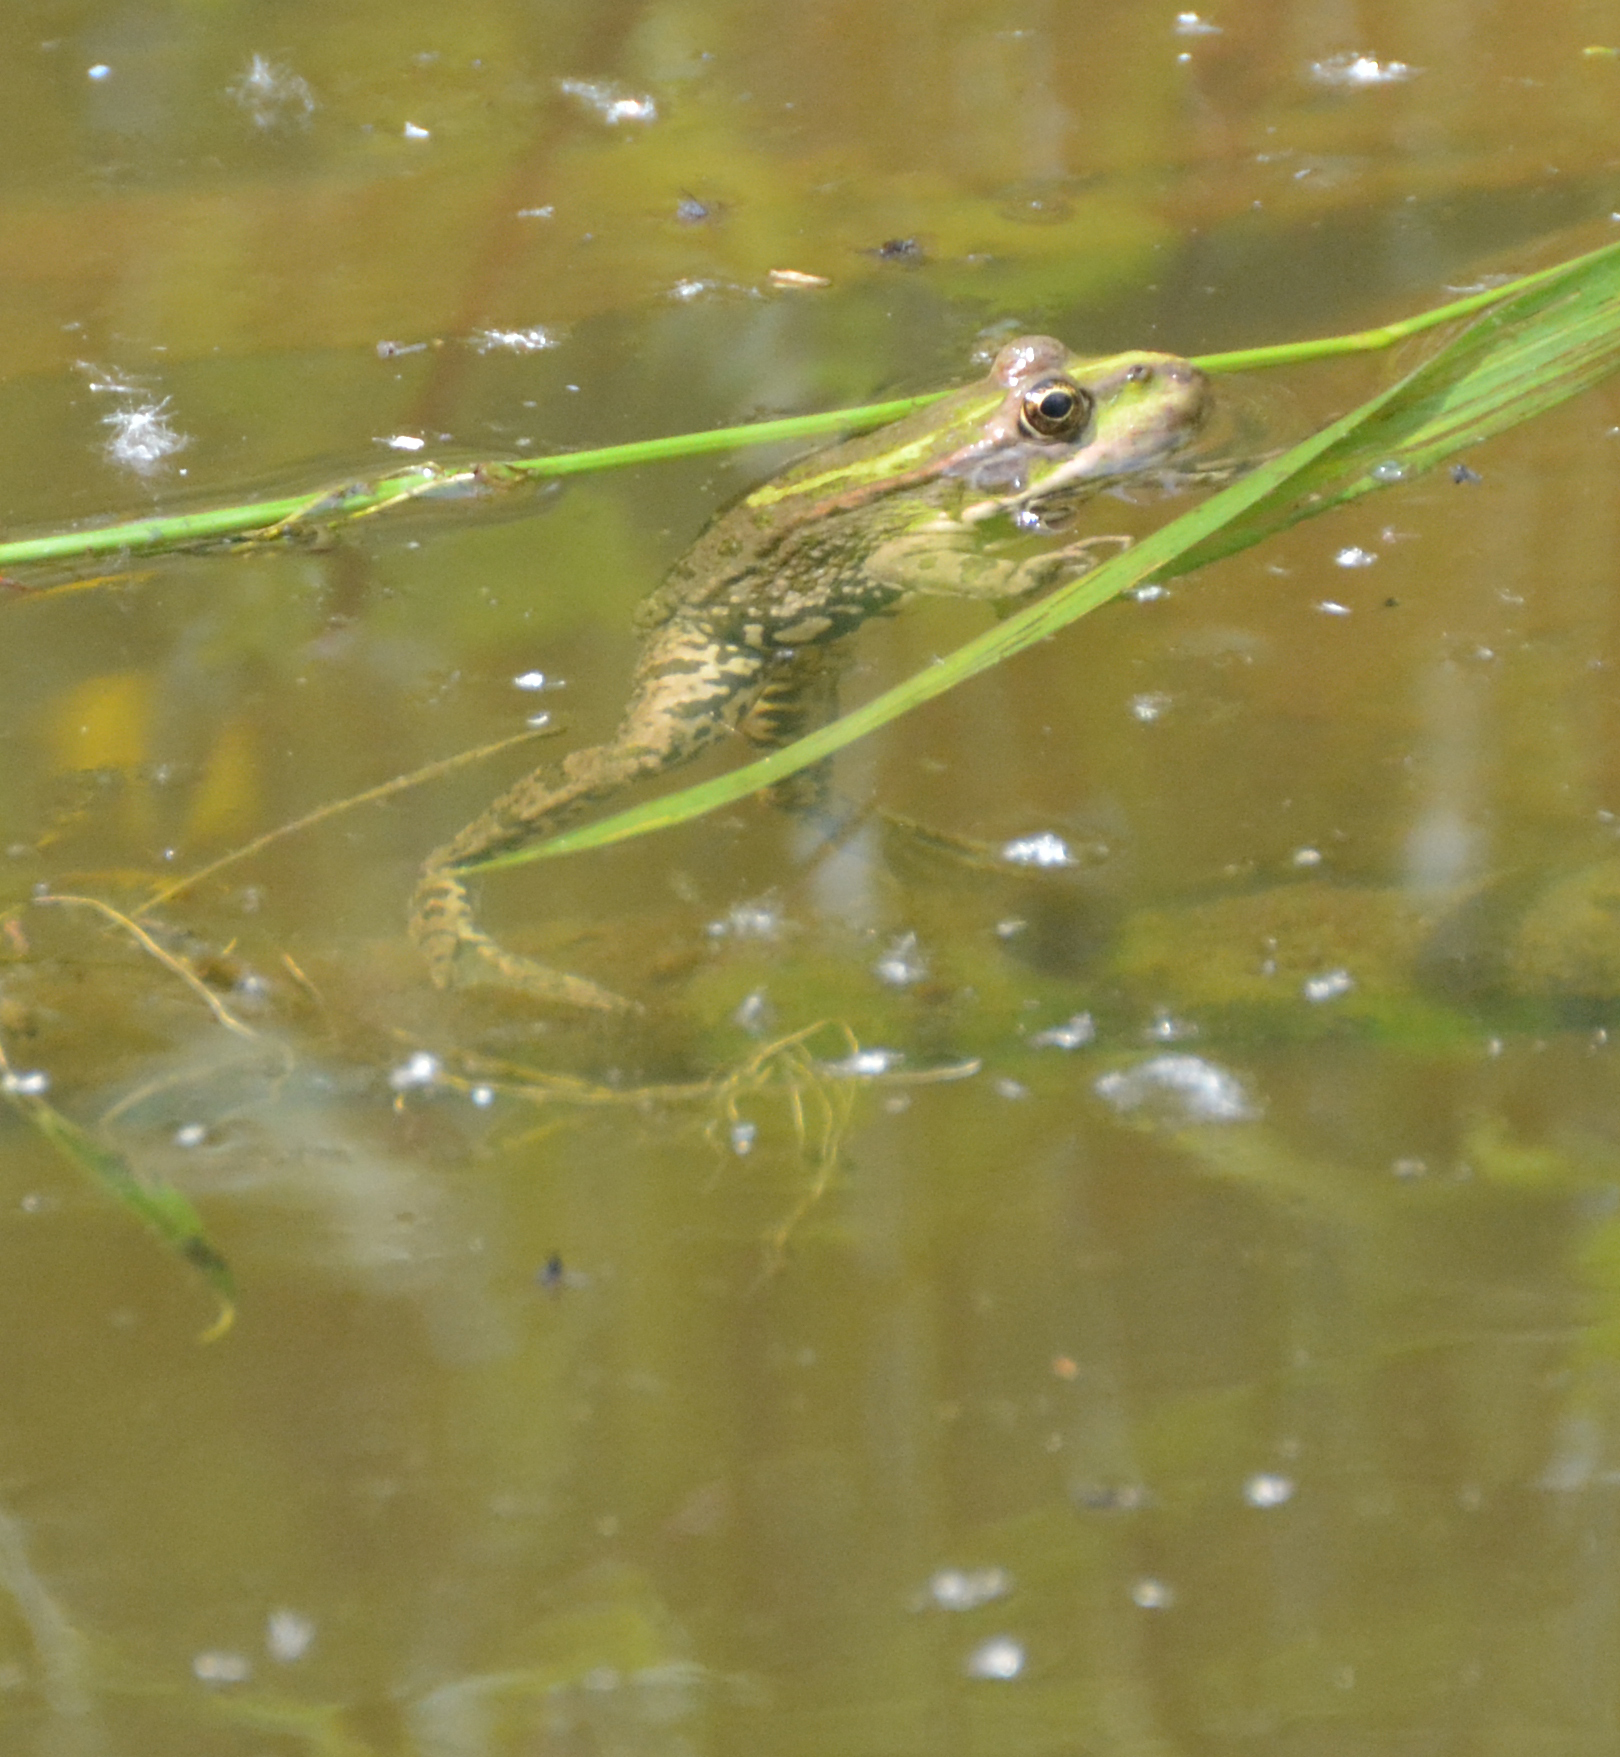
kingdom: Animalia
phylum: Chordata
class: Amphibia
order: Anura
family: Ranidae
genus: Pelophylax
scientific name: Pelophylax ridibundus
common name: Marsh frog
